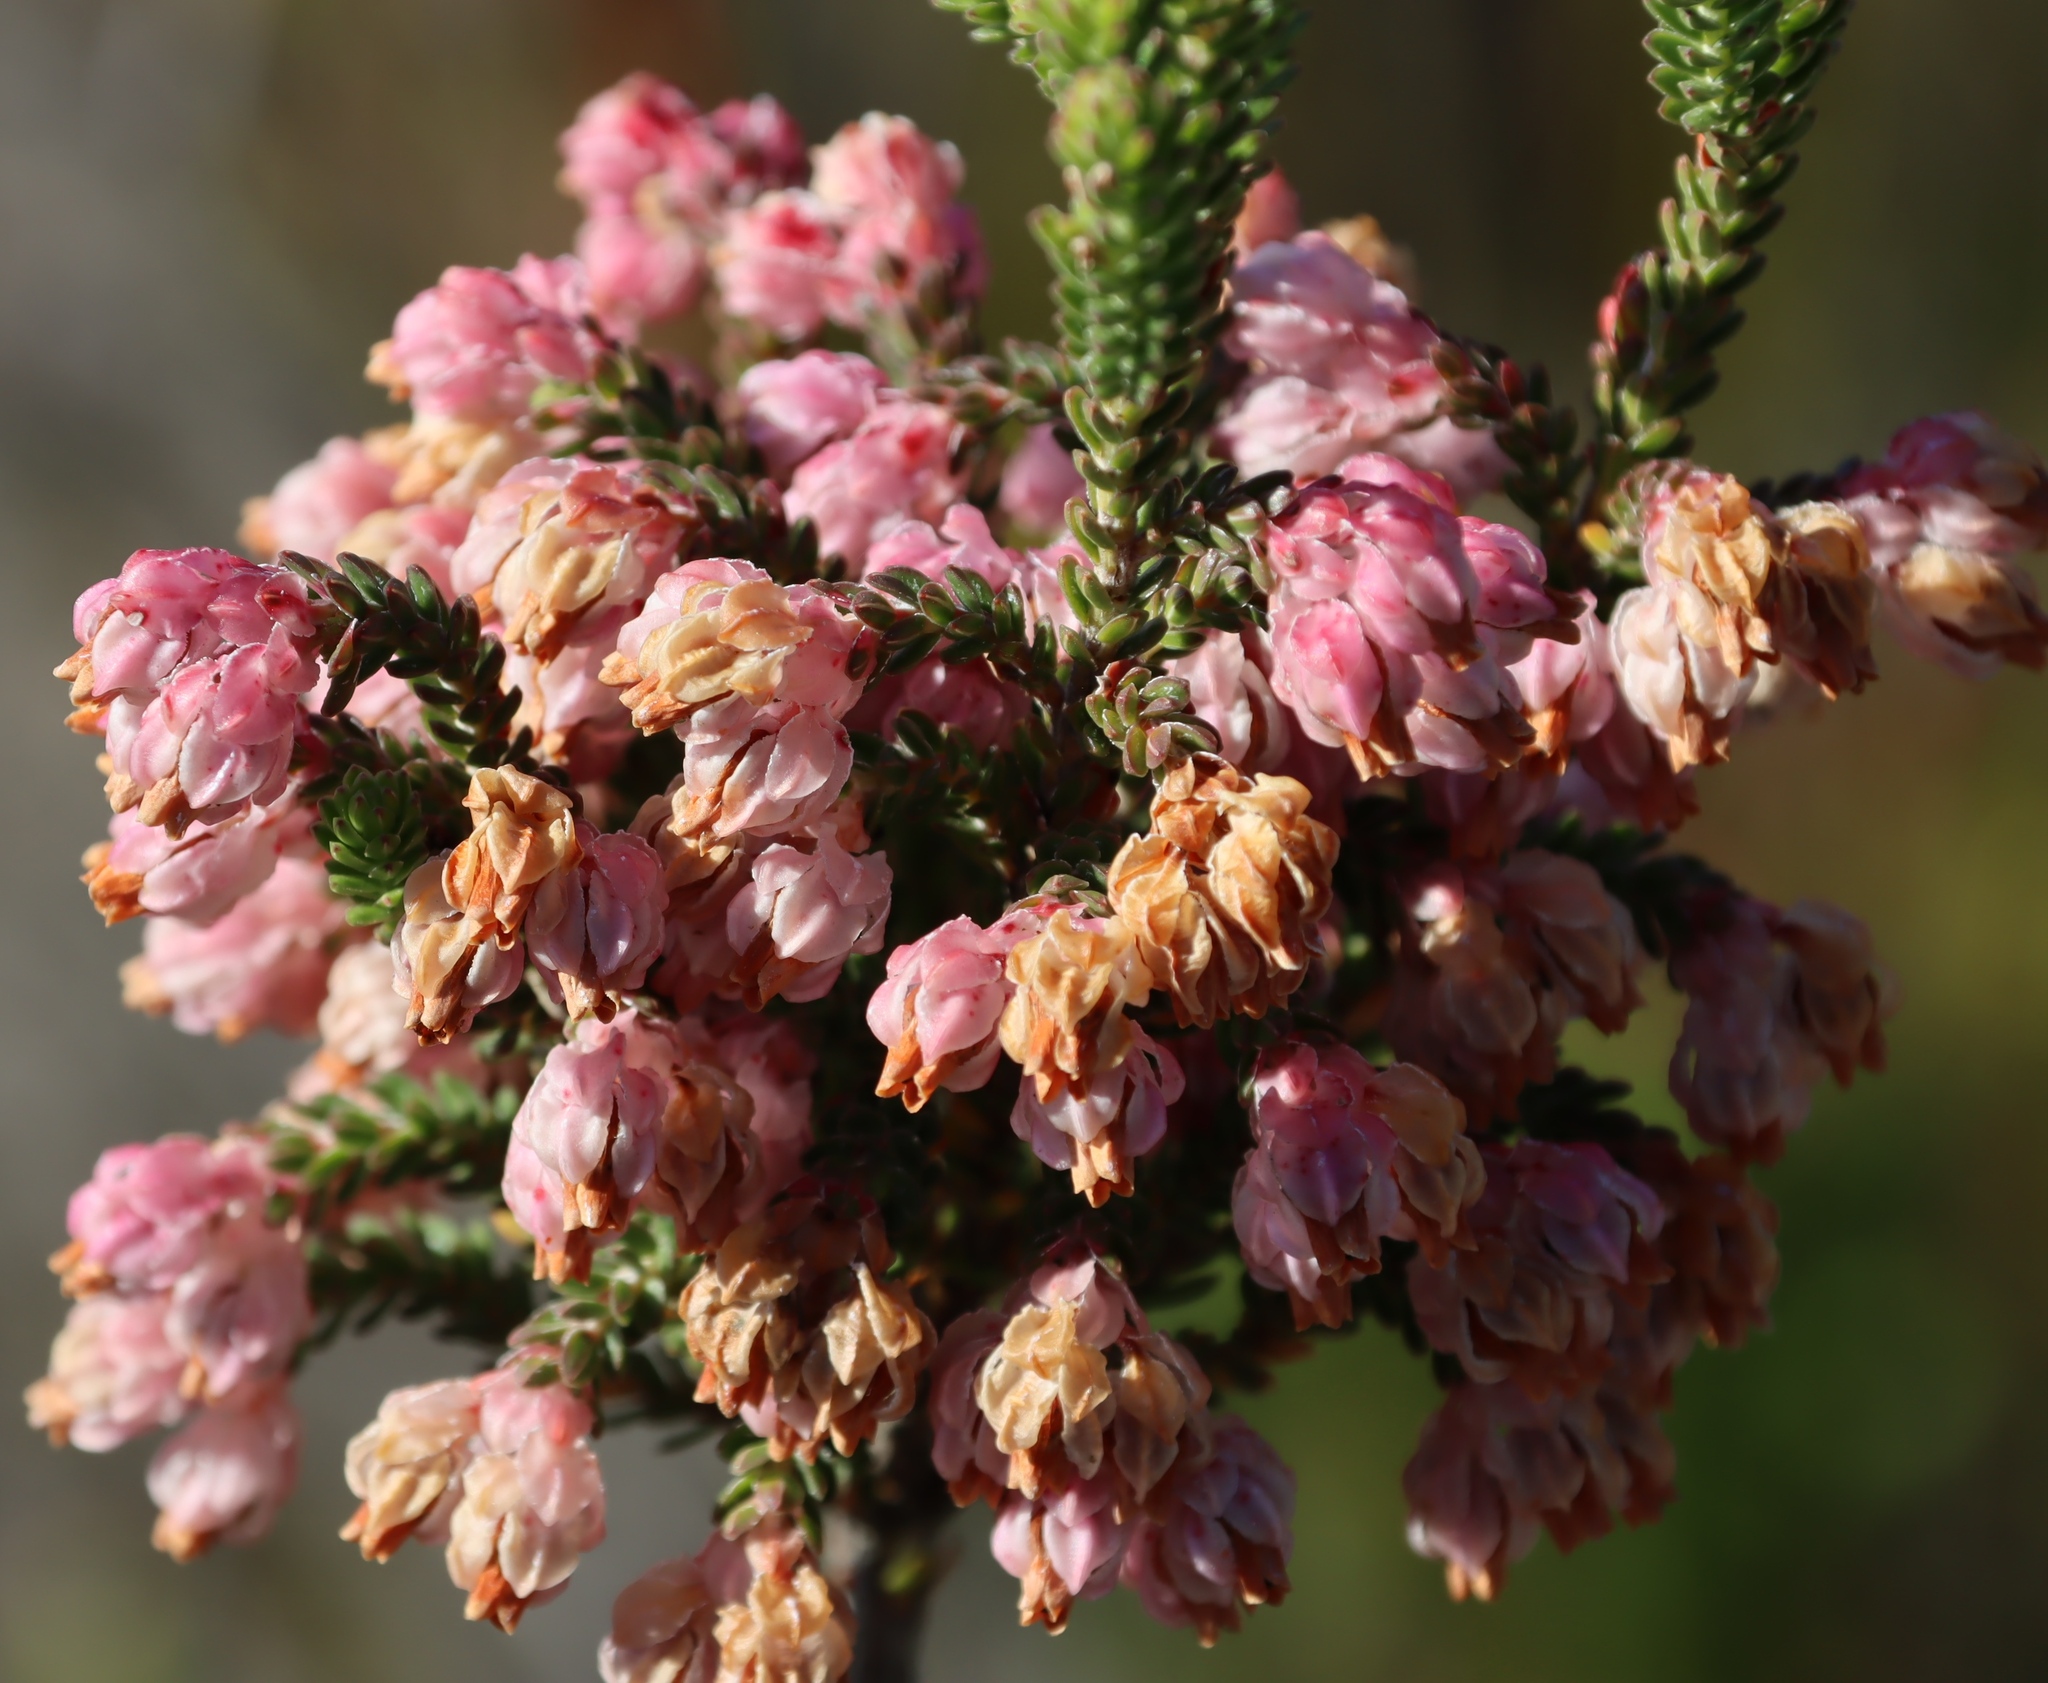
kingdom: Plantae
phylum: Tracheophyta
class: Magnoliopsida
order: Ericales
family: Ericaceae
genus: Erica
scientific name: Erica baccans
